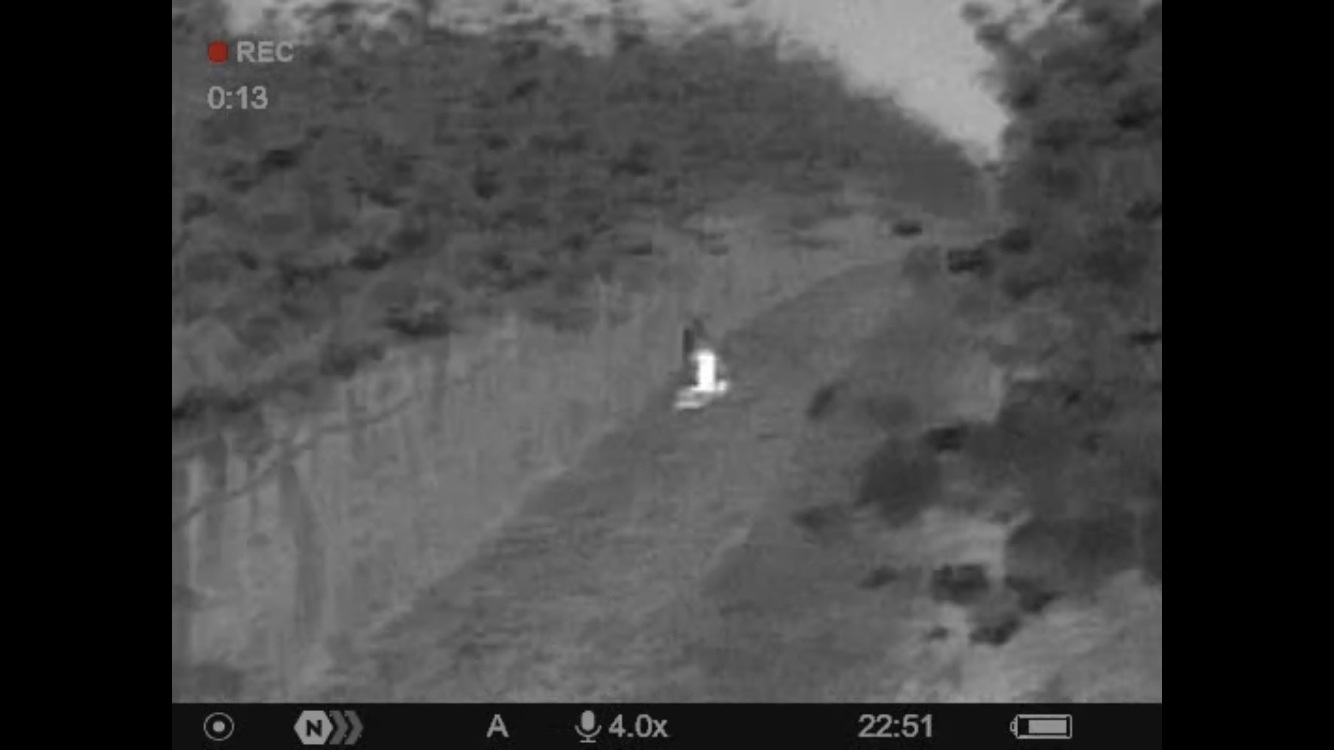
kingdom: Animalia
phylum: Chordata
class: Aves
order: Strigiformes
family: Strigidae
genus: Asio
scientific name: Asio otus
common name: Long-eared owl
